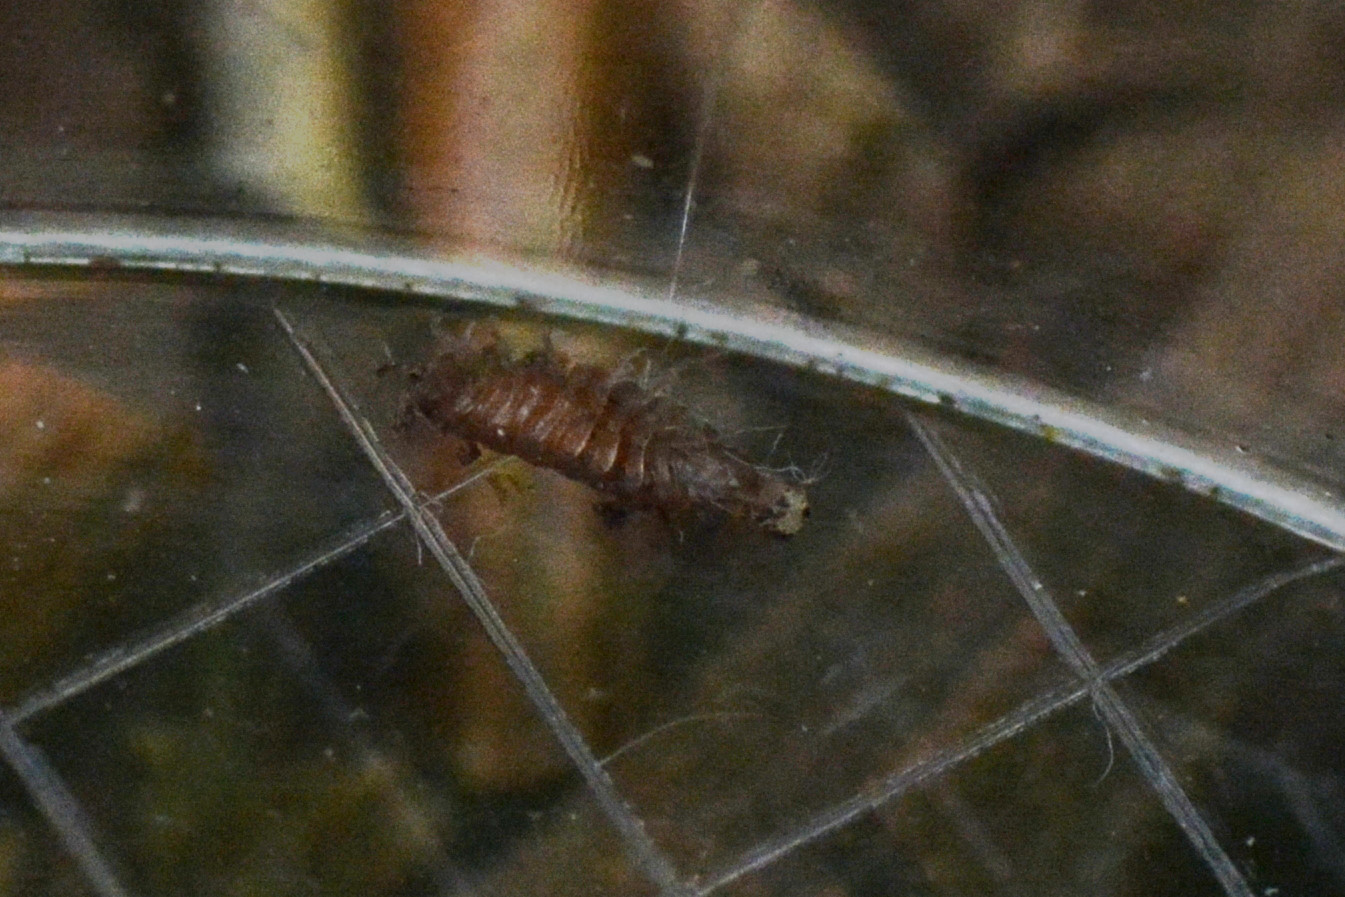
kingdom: Animalia
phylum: Arthropoda
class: Malacostraca
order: Isopoda
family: Trichoniscidae
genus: Trichoniscus
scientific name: Trichoniscus
